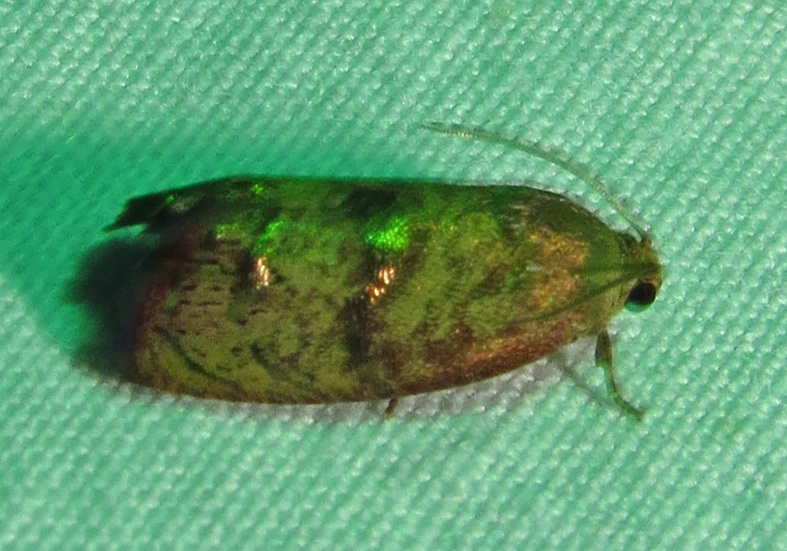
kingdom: Animalia
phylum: Arthropoda
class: Insecta
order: Lepidoptera
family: Tortricidae
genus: Cydia
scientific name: Cydia latiferreana
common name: Filbertworm moth
